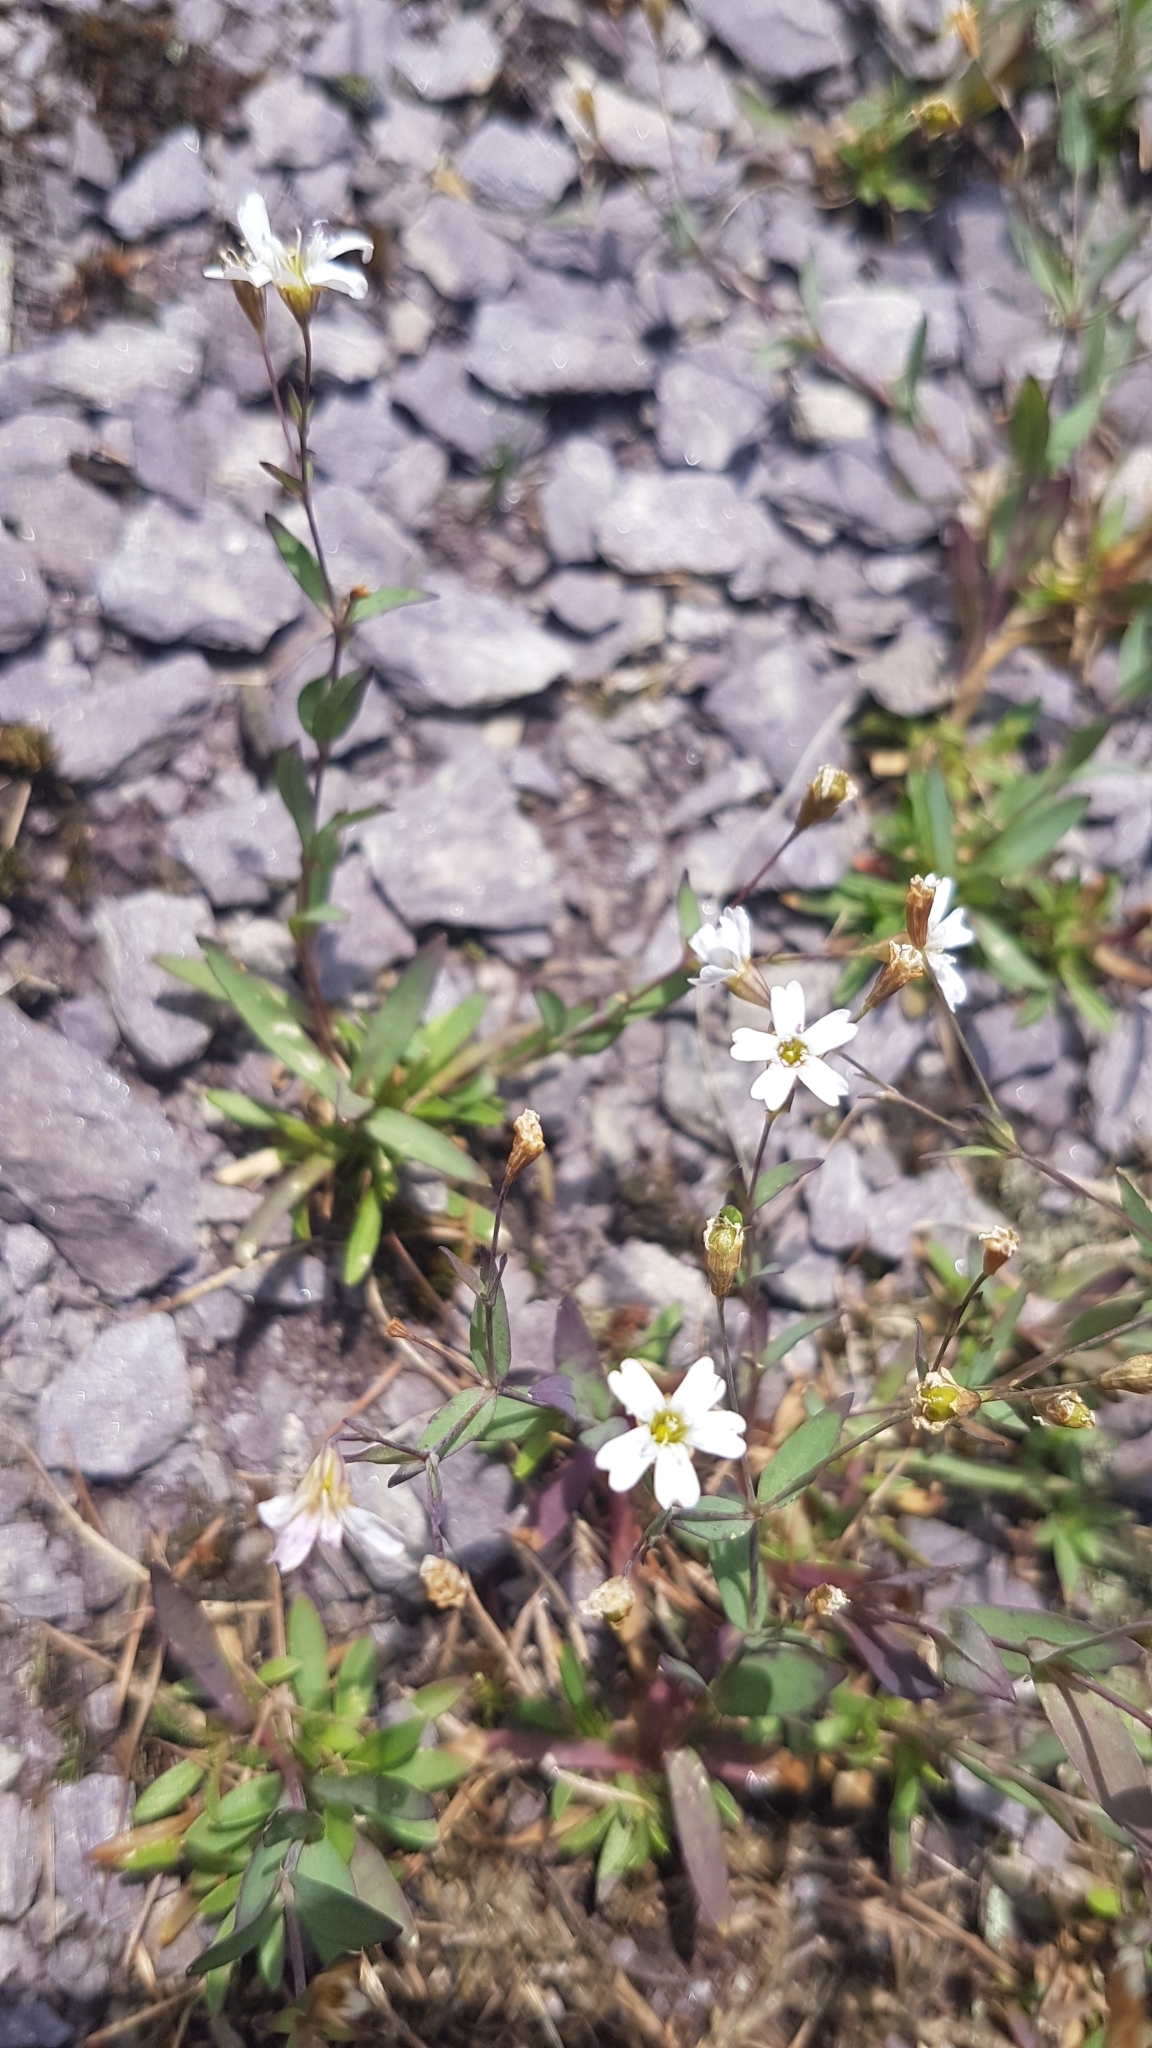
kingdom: Plantae
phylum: Tracheophyta
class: Magnoliopsida
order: Caryophyllales
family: Caryophyllaceae
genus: Atocion
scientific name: Atocion rupestre
